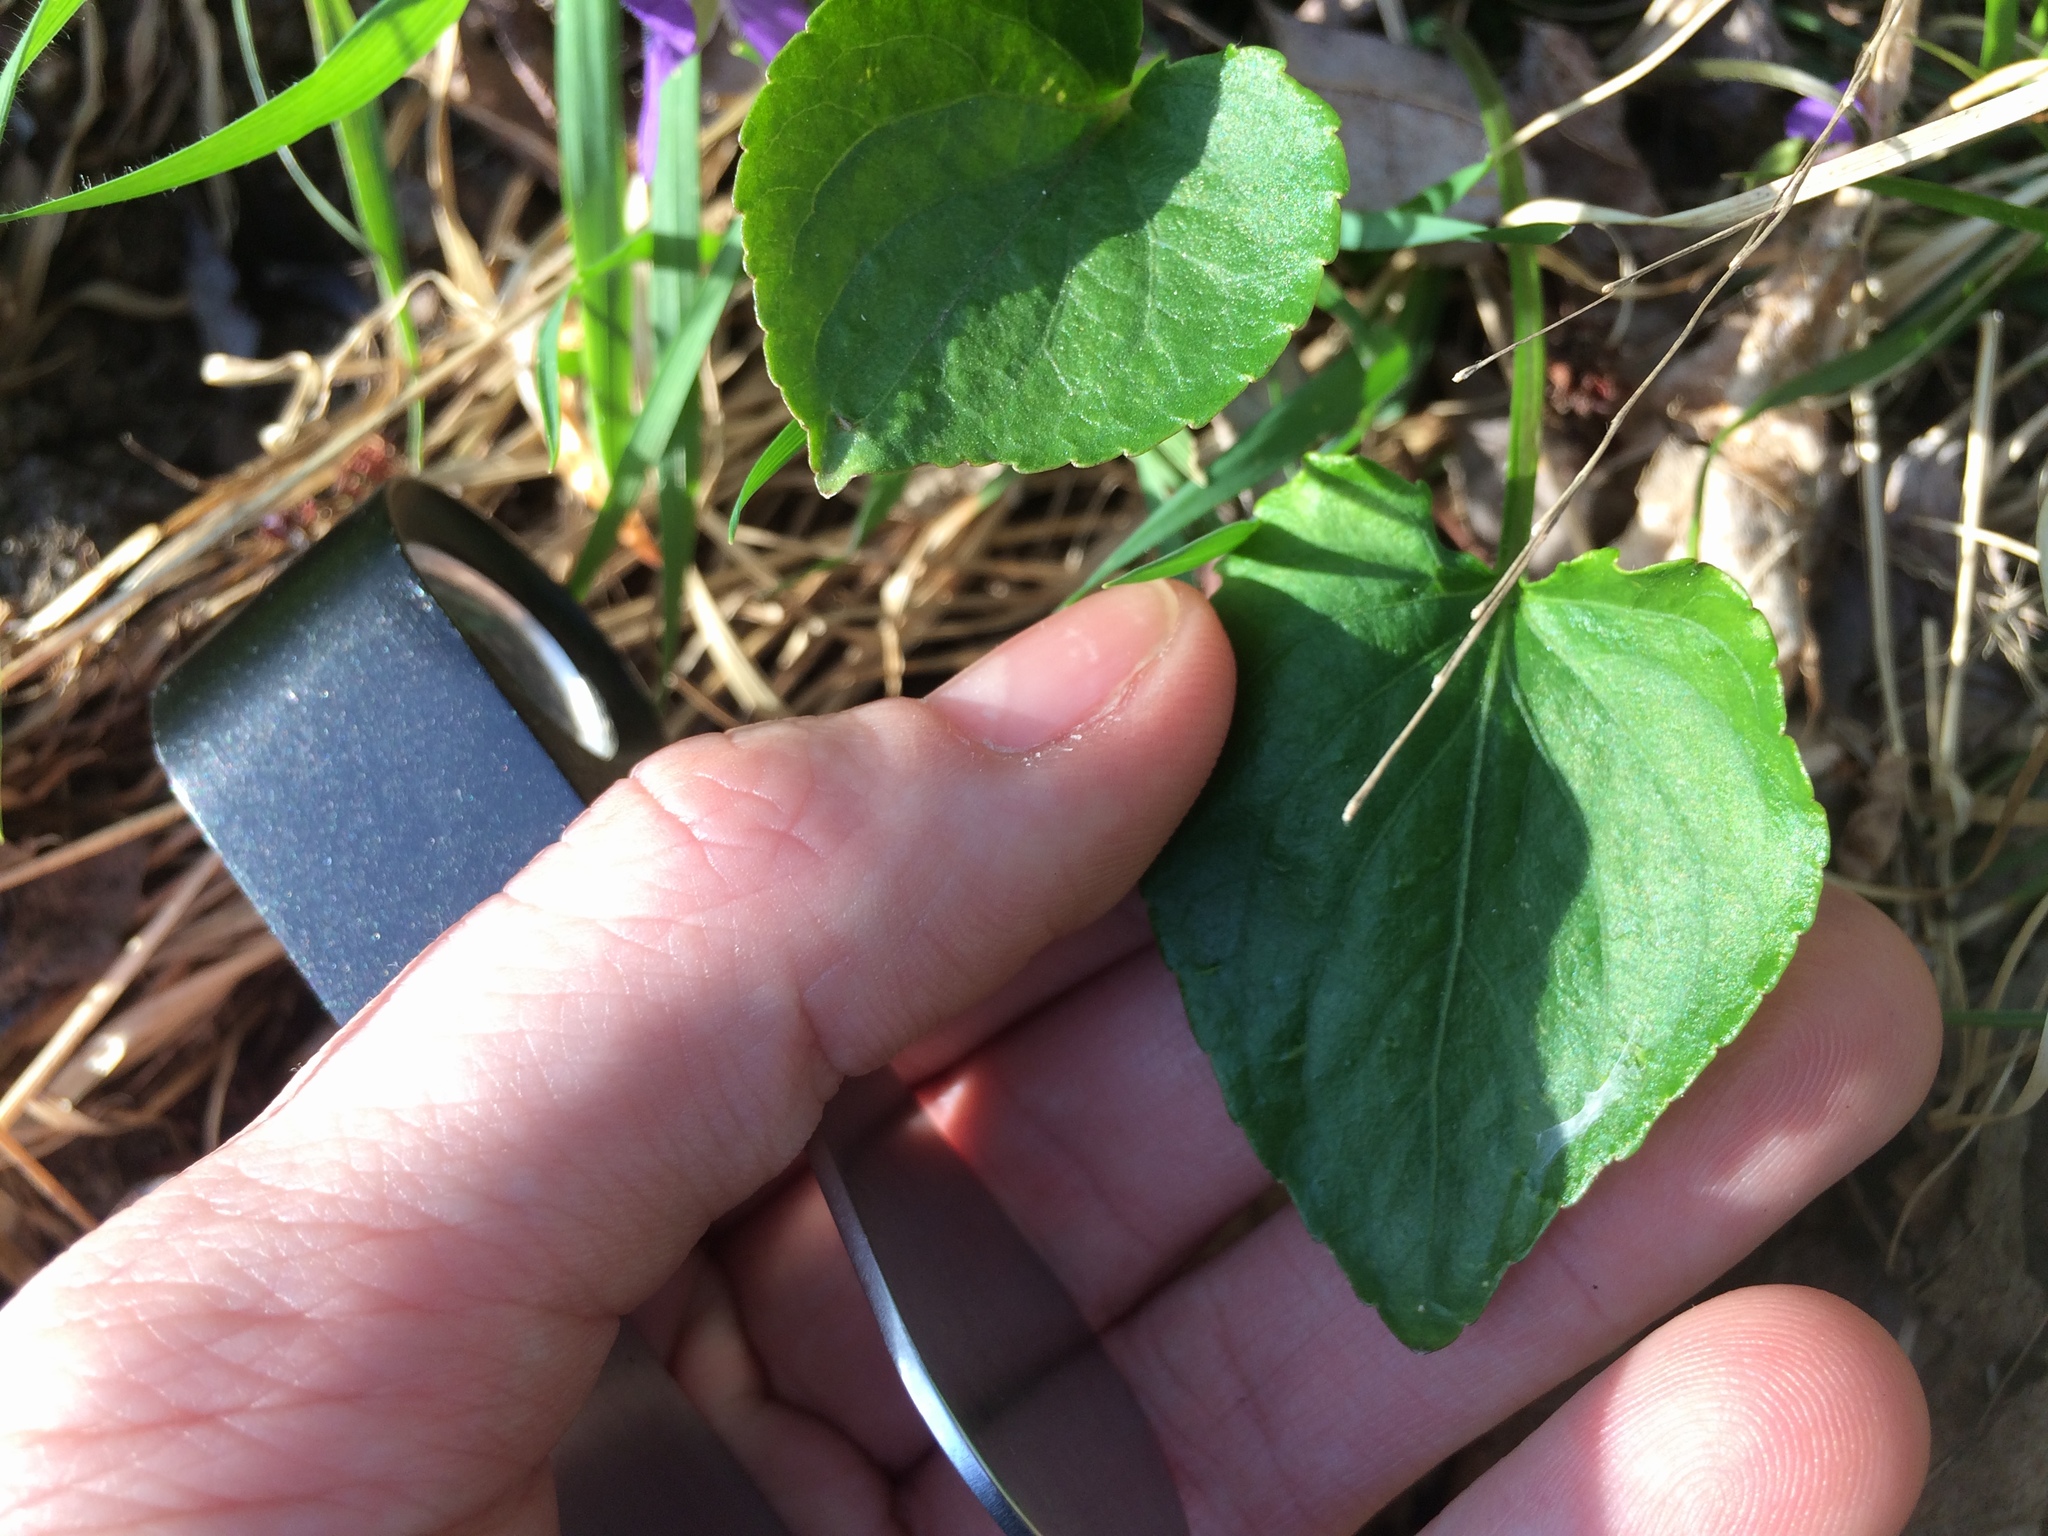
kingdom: Plantae
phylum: Tracheophyta
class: Magnoliopsida
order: Malpighiales
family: Violaceae
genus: Viola
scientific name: Viola sororia
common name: Dooryard violet
